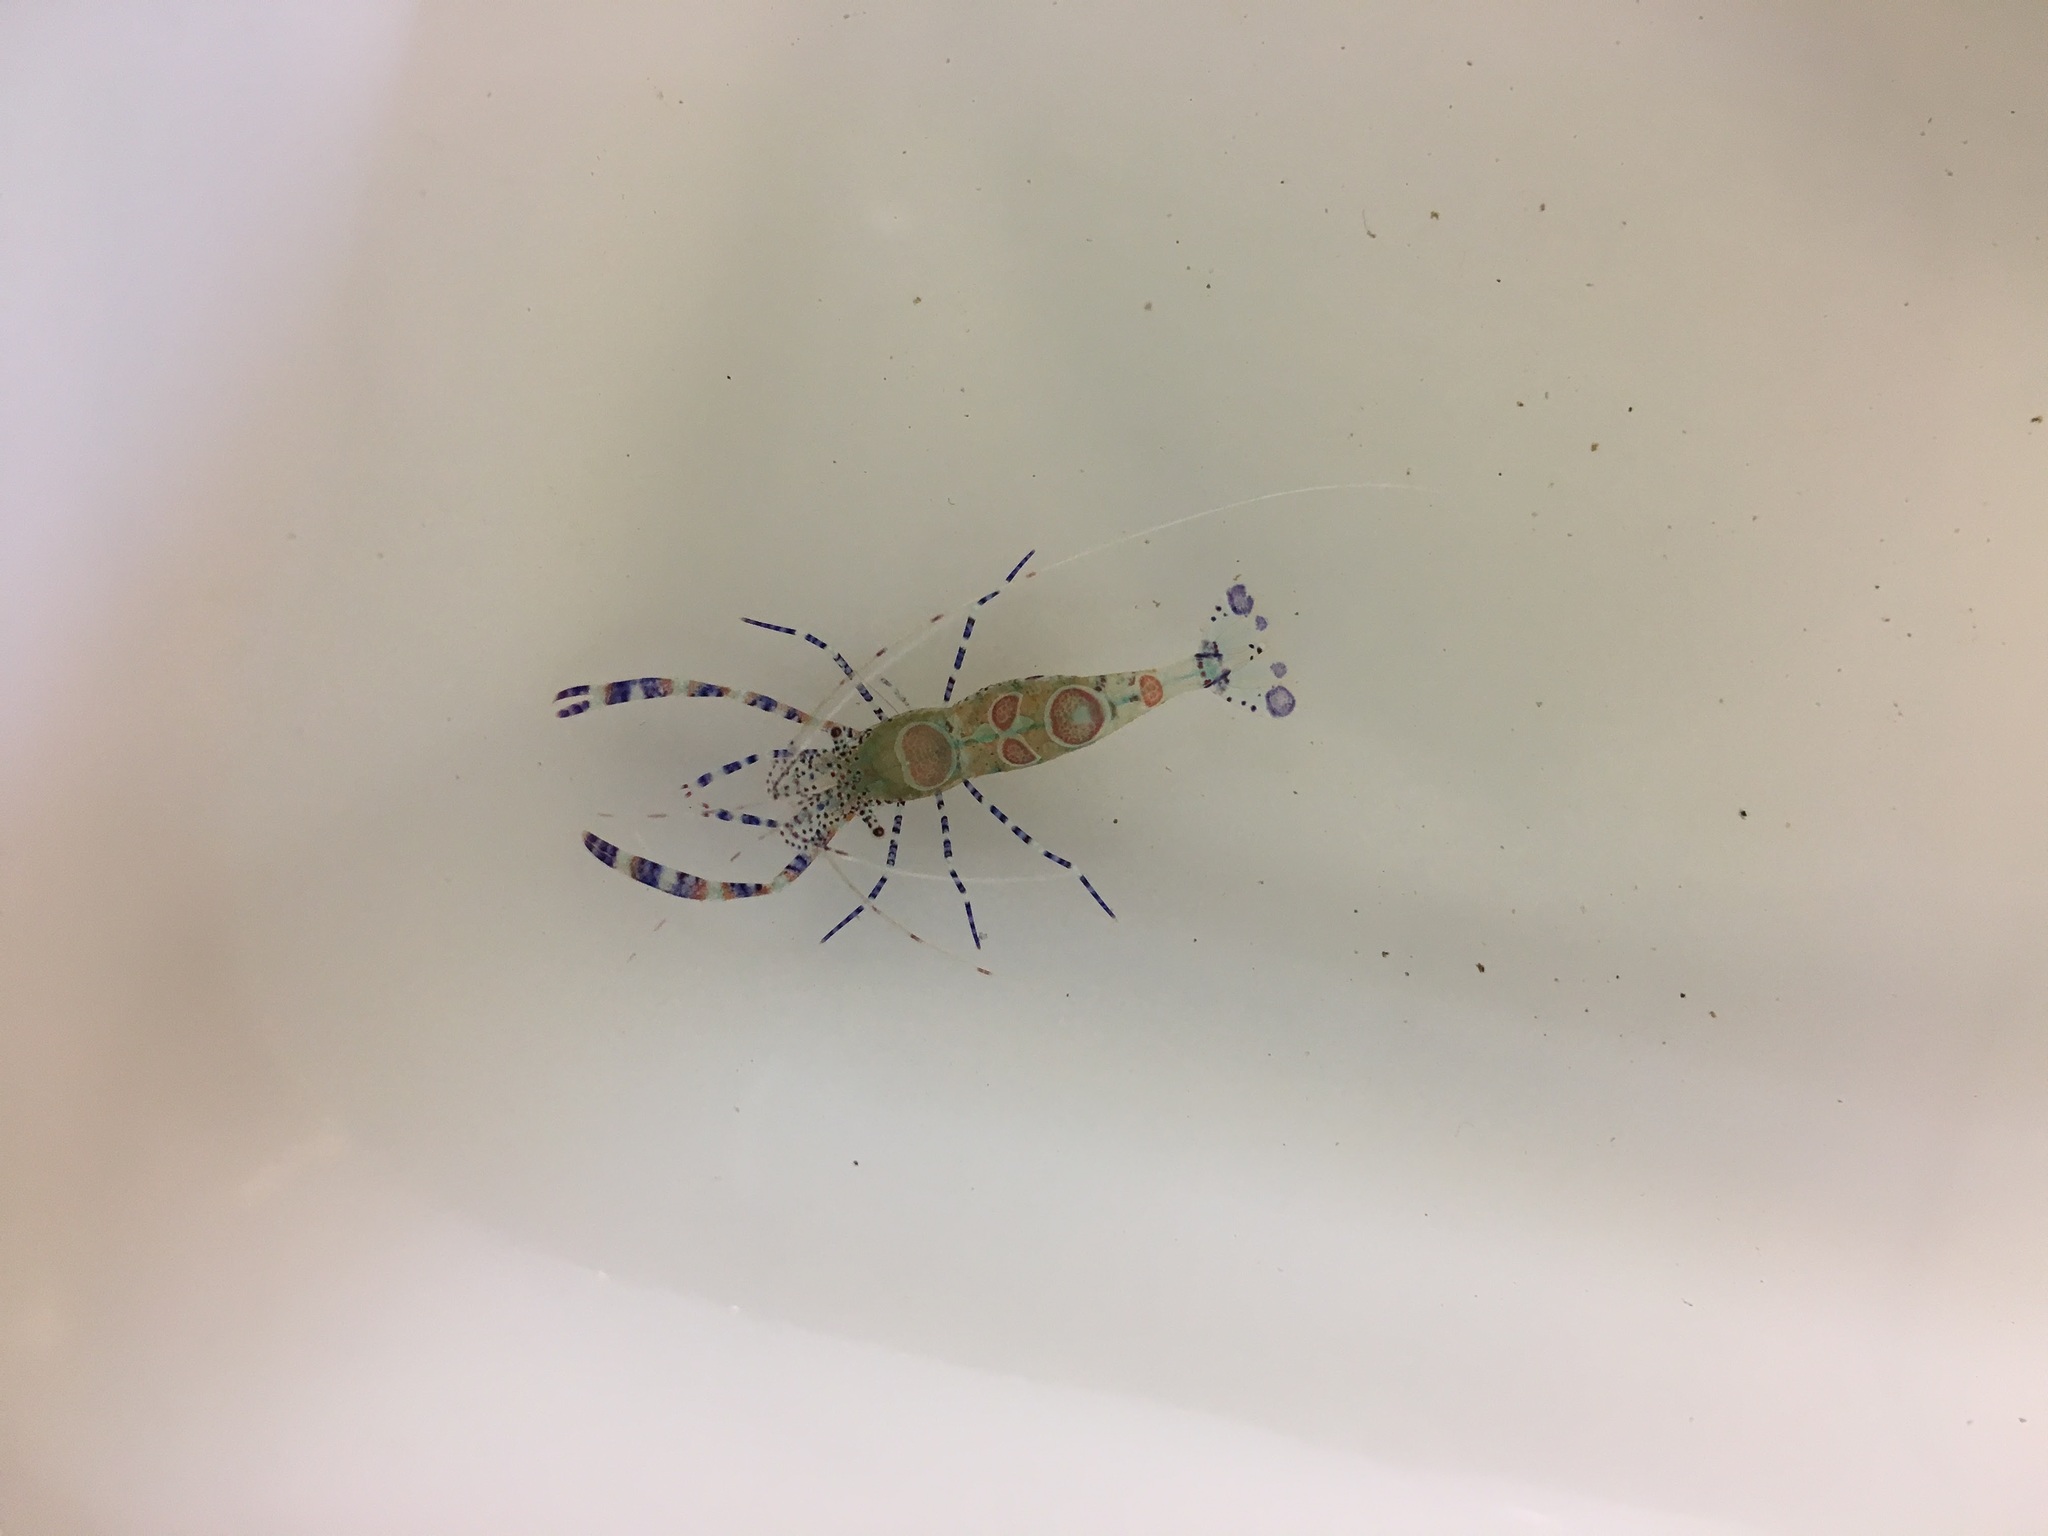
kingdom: Animalia
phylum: Arthropoda
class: Malacostraca
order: Decapoda
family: Palaemonidae
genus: Periclimenes
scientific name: Periclimenes yucatanicus
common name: Spotted cleaning shrimp
